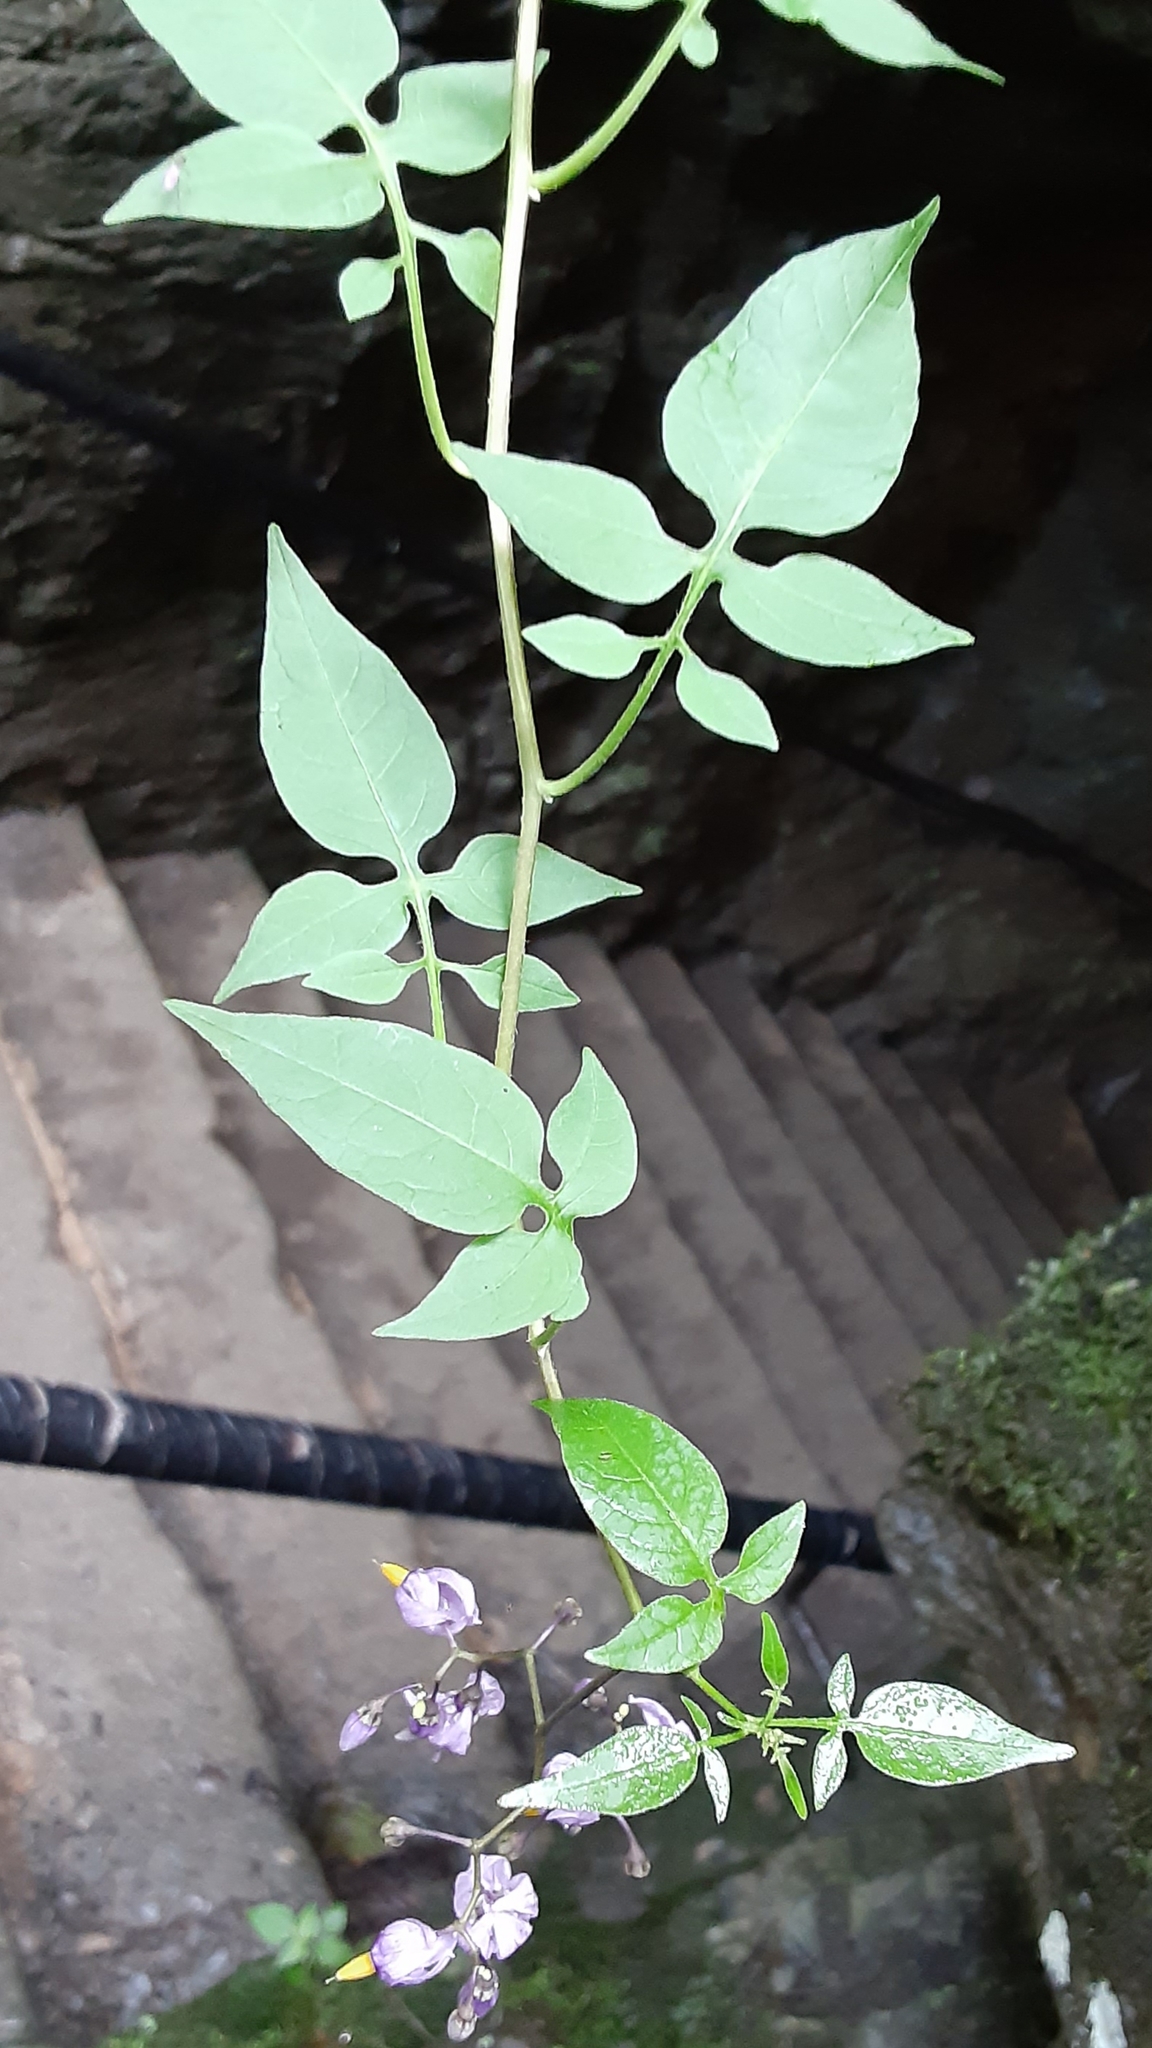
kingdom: Plantae
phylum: Tracheophyta
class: Magnoliopsida
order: Solanales
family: Solanaceae
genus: Solanum
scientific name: Solanum dulcamara
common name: Climbing nightshade
